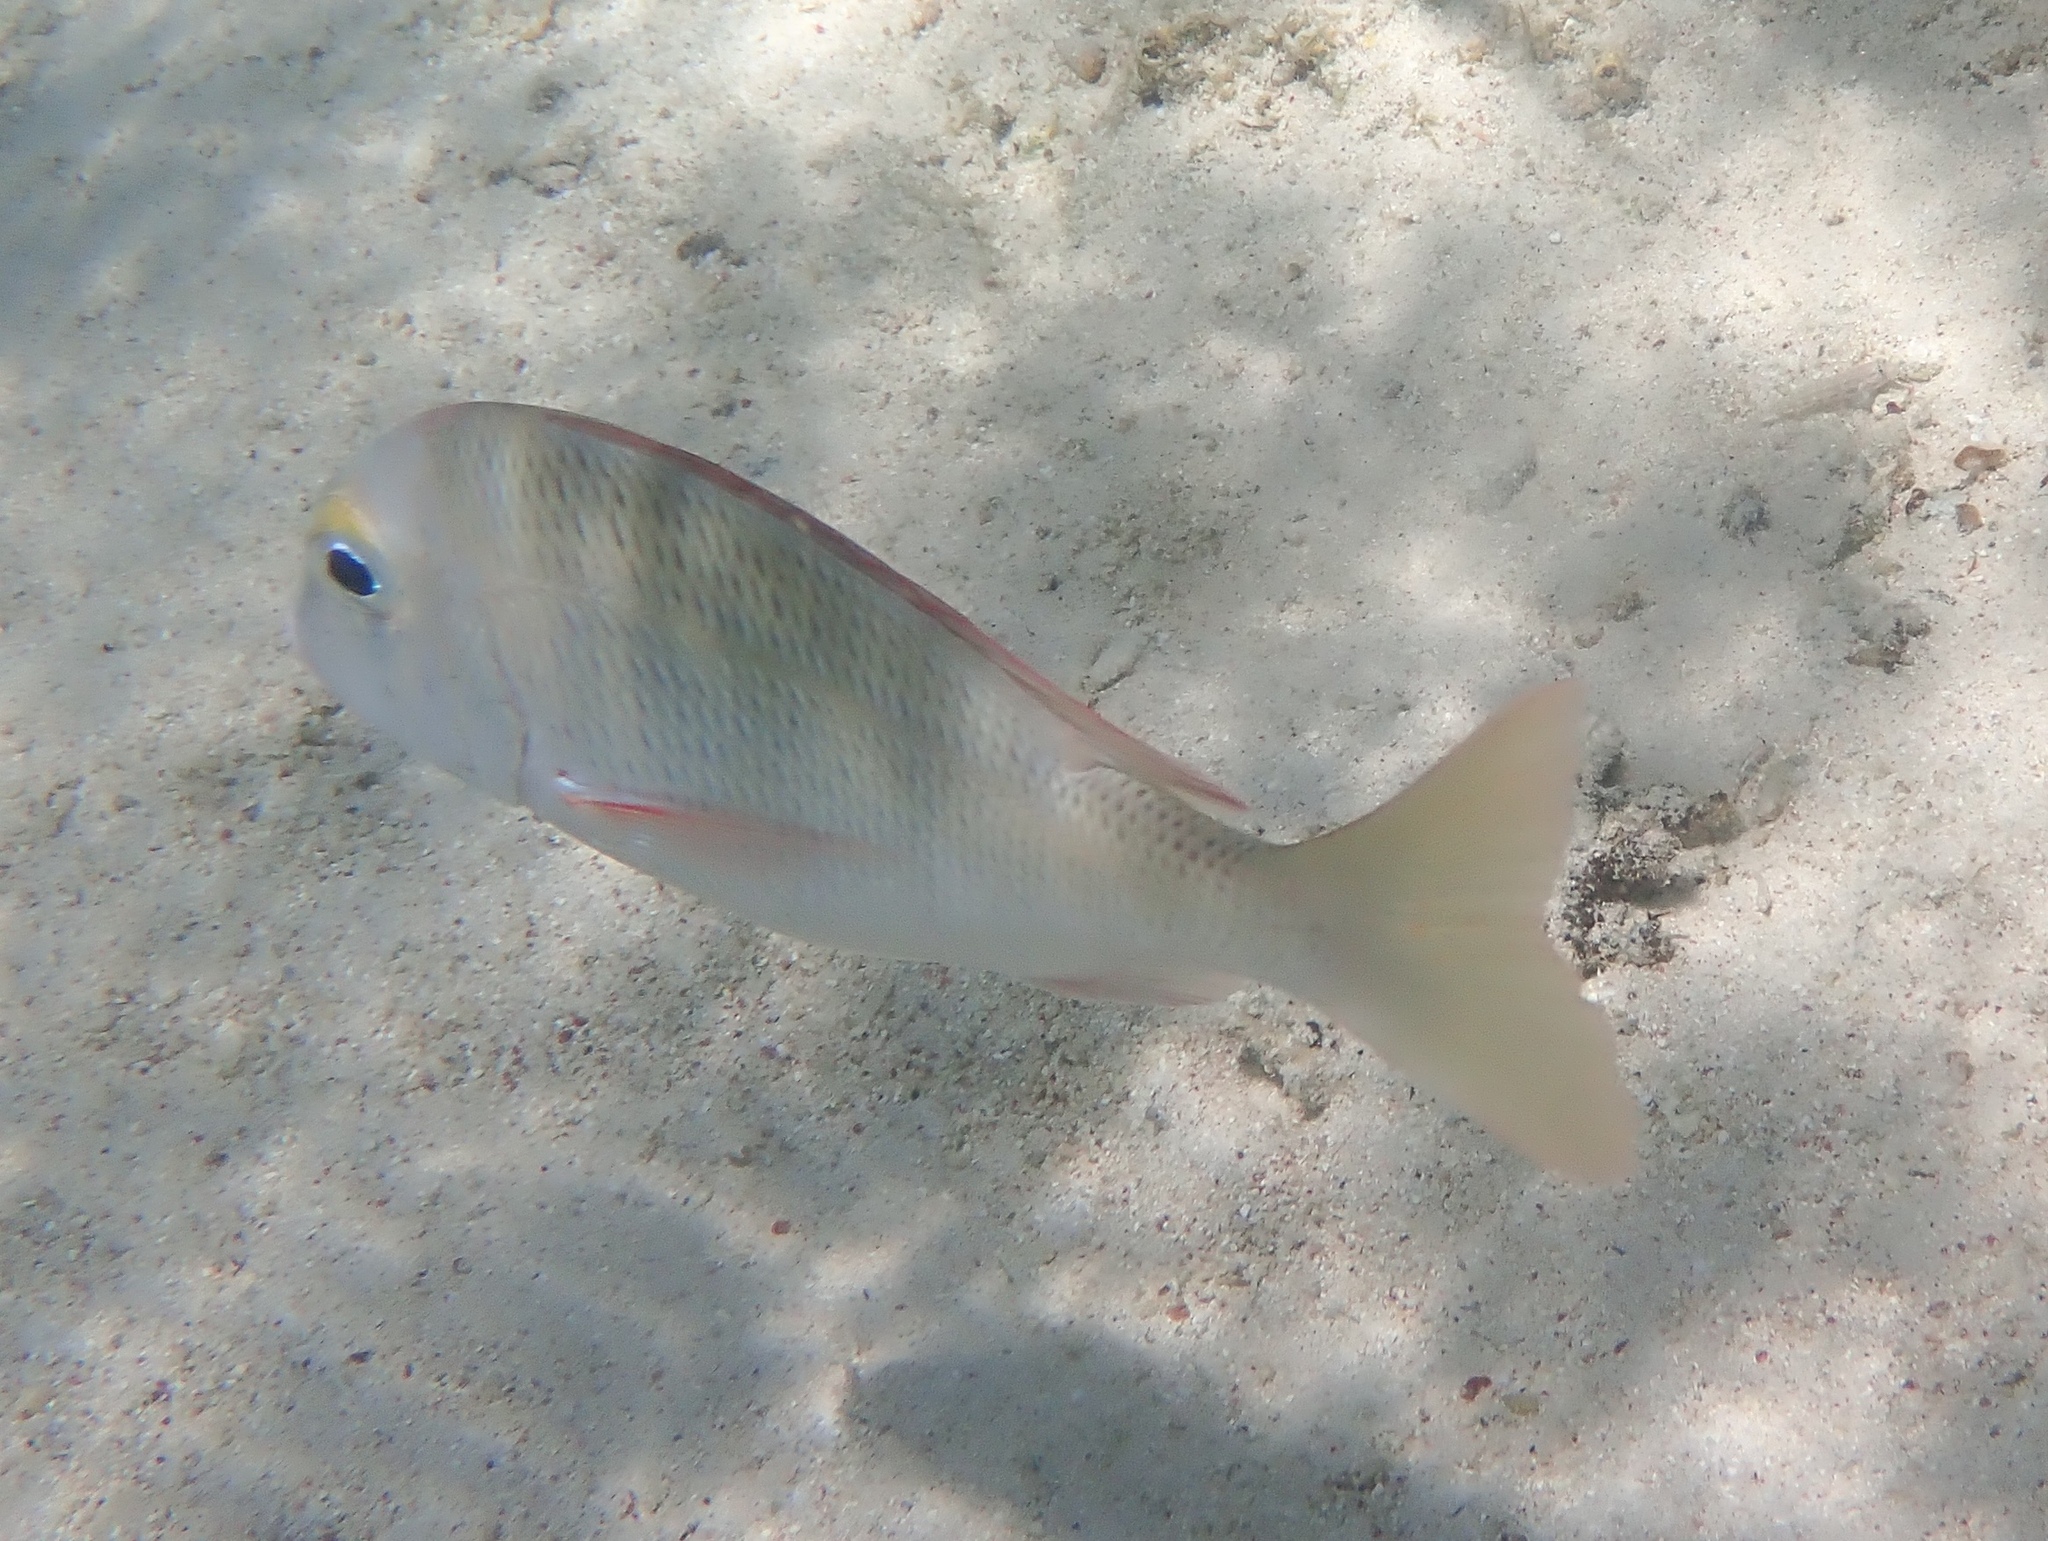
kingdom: Animalia
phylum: Chordata
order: Perciformes
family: Lethrinidae
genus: Lethrinus
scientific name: Lethrinus atkinsoni
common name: Pacific yellowtail emperor
